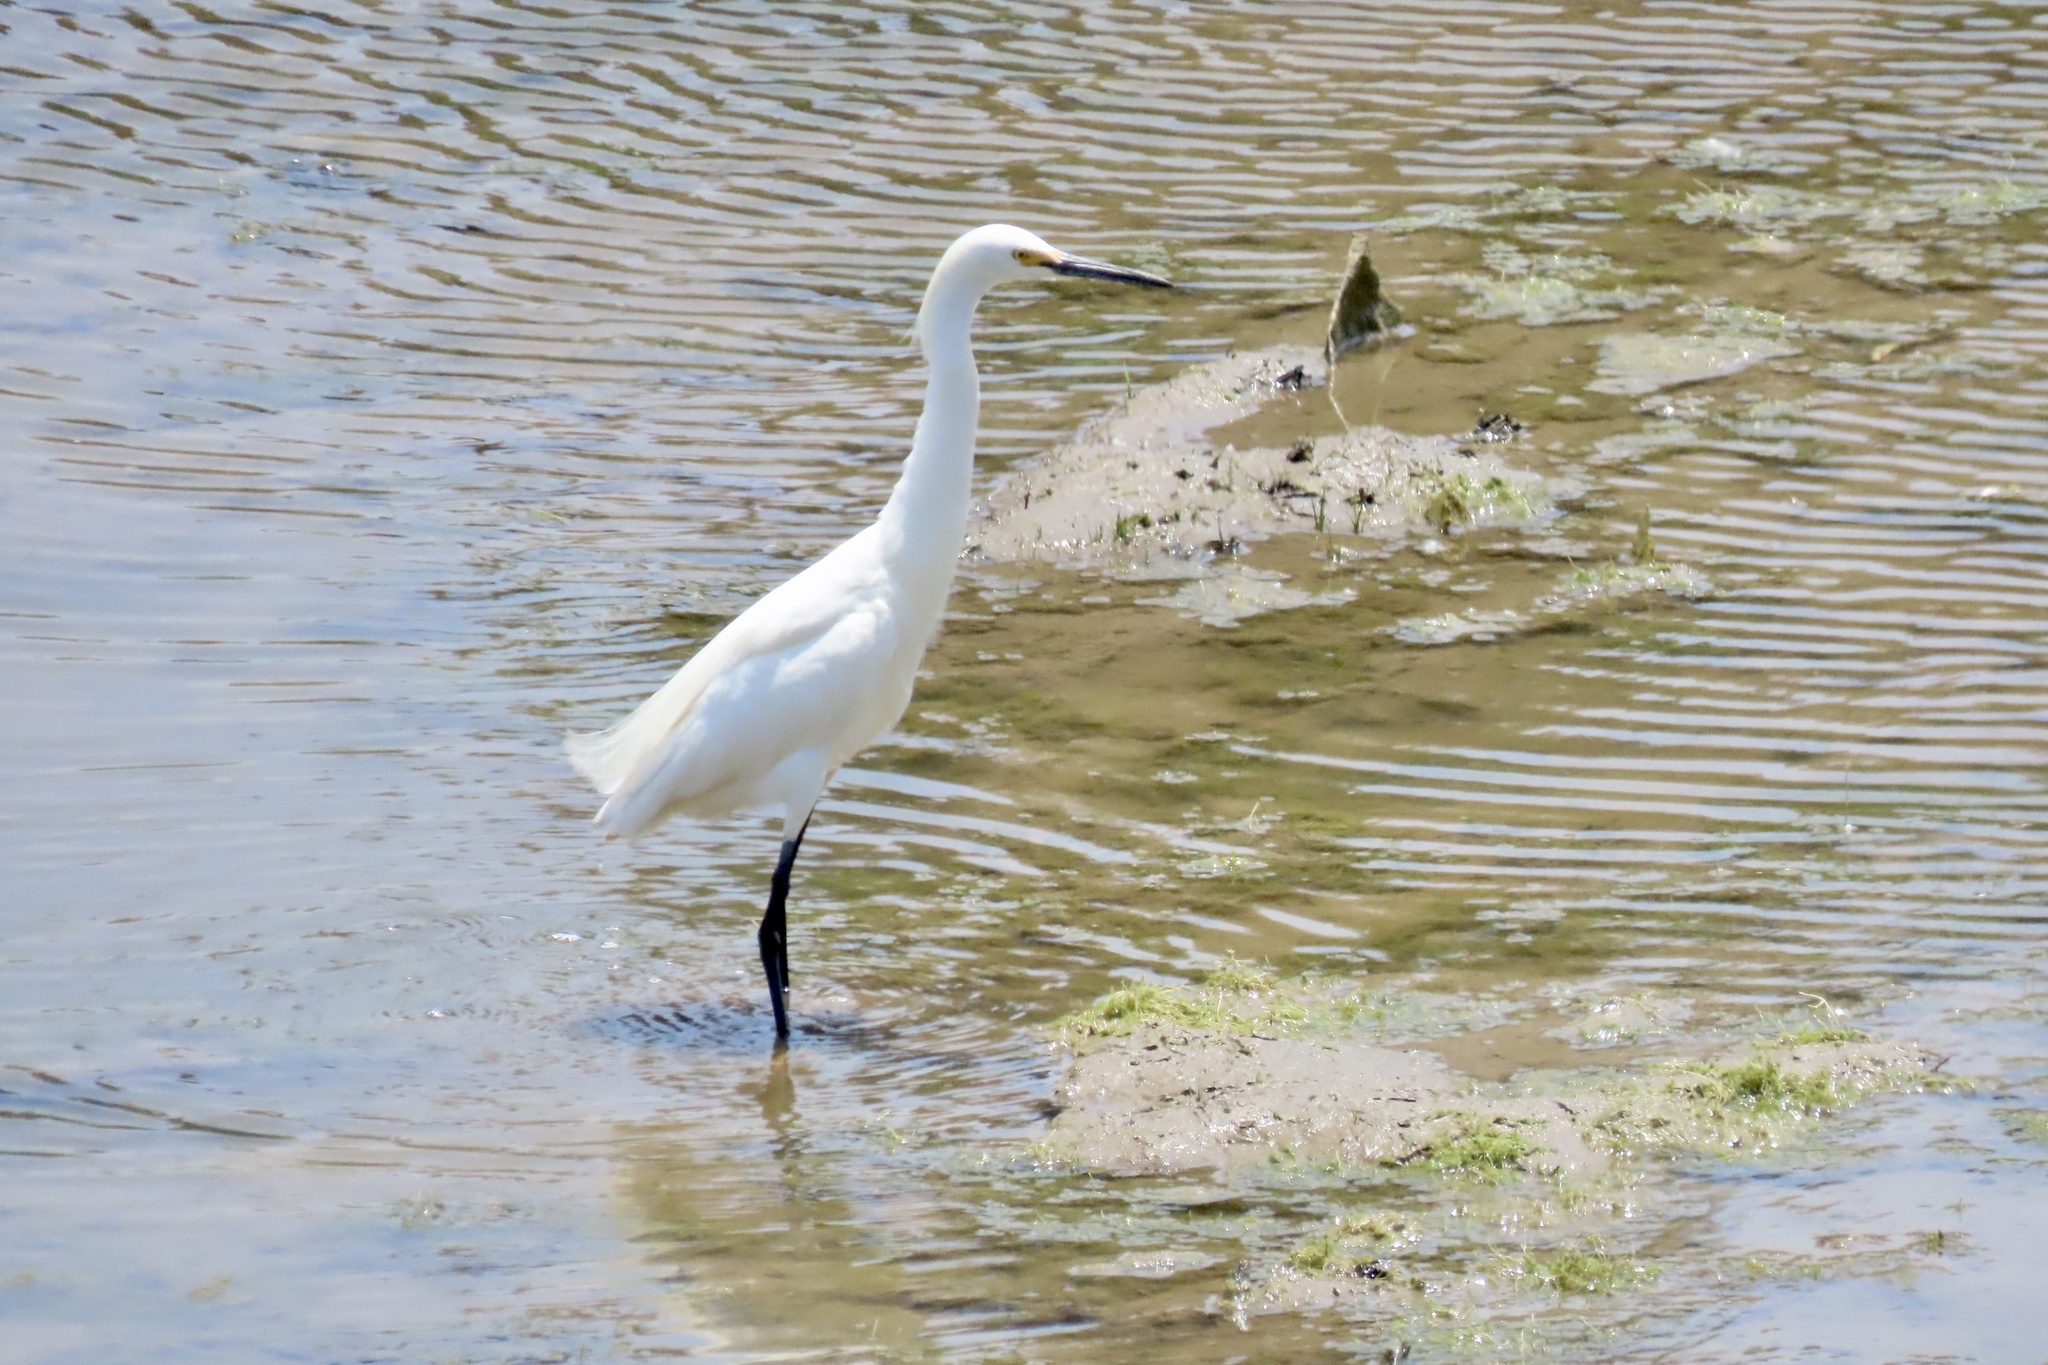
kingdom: Animalia
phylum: Chordata
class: Aves
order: Pelecaniformes
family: Ardeidae
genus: Egretta
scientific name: Egretta thula
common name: Snowy egret
